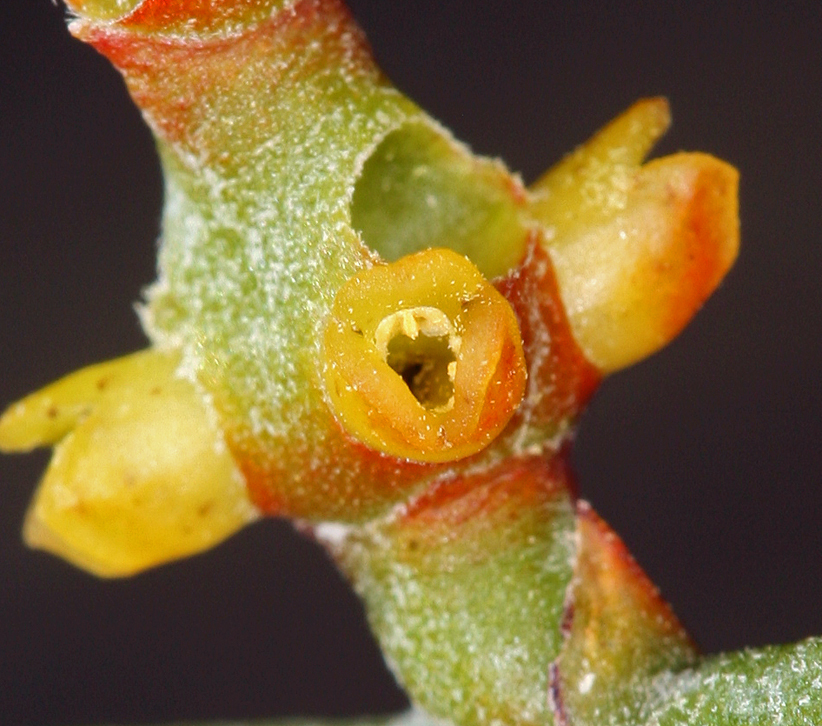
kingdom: Plantae
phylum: Tracheophyta
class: Magnoliopsida
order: Santalales
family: Viscaceae
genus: Phoradendron
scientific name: Phoradendron californicum
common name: Acacia mistletoe
